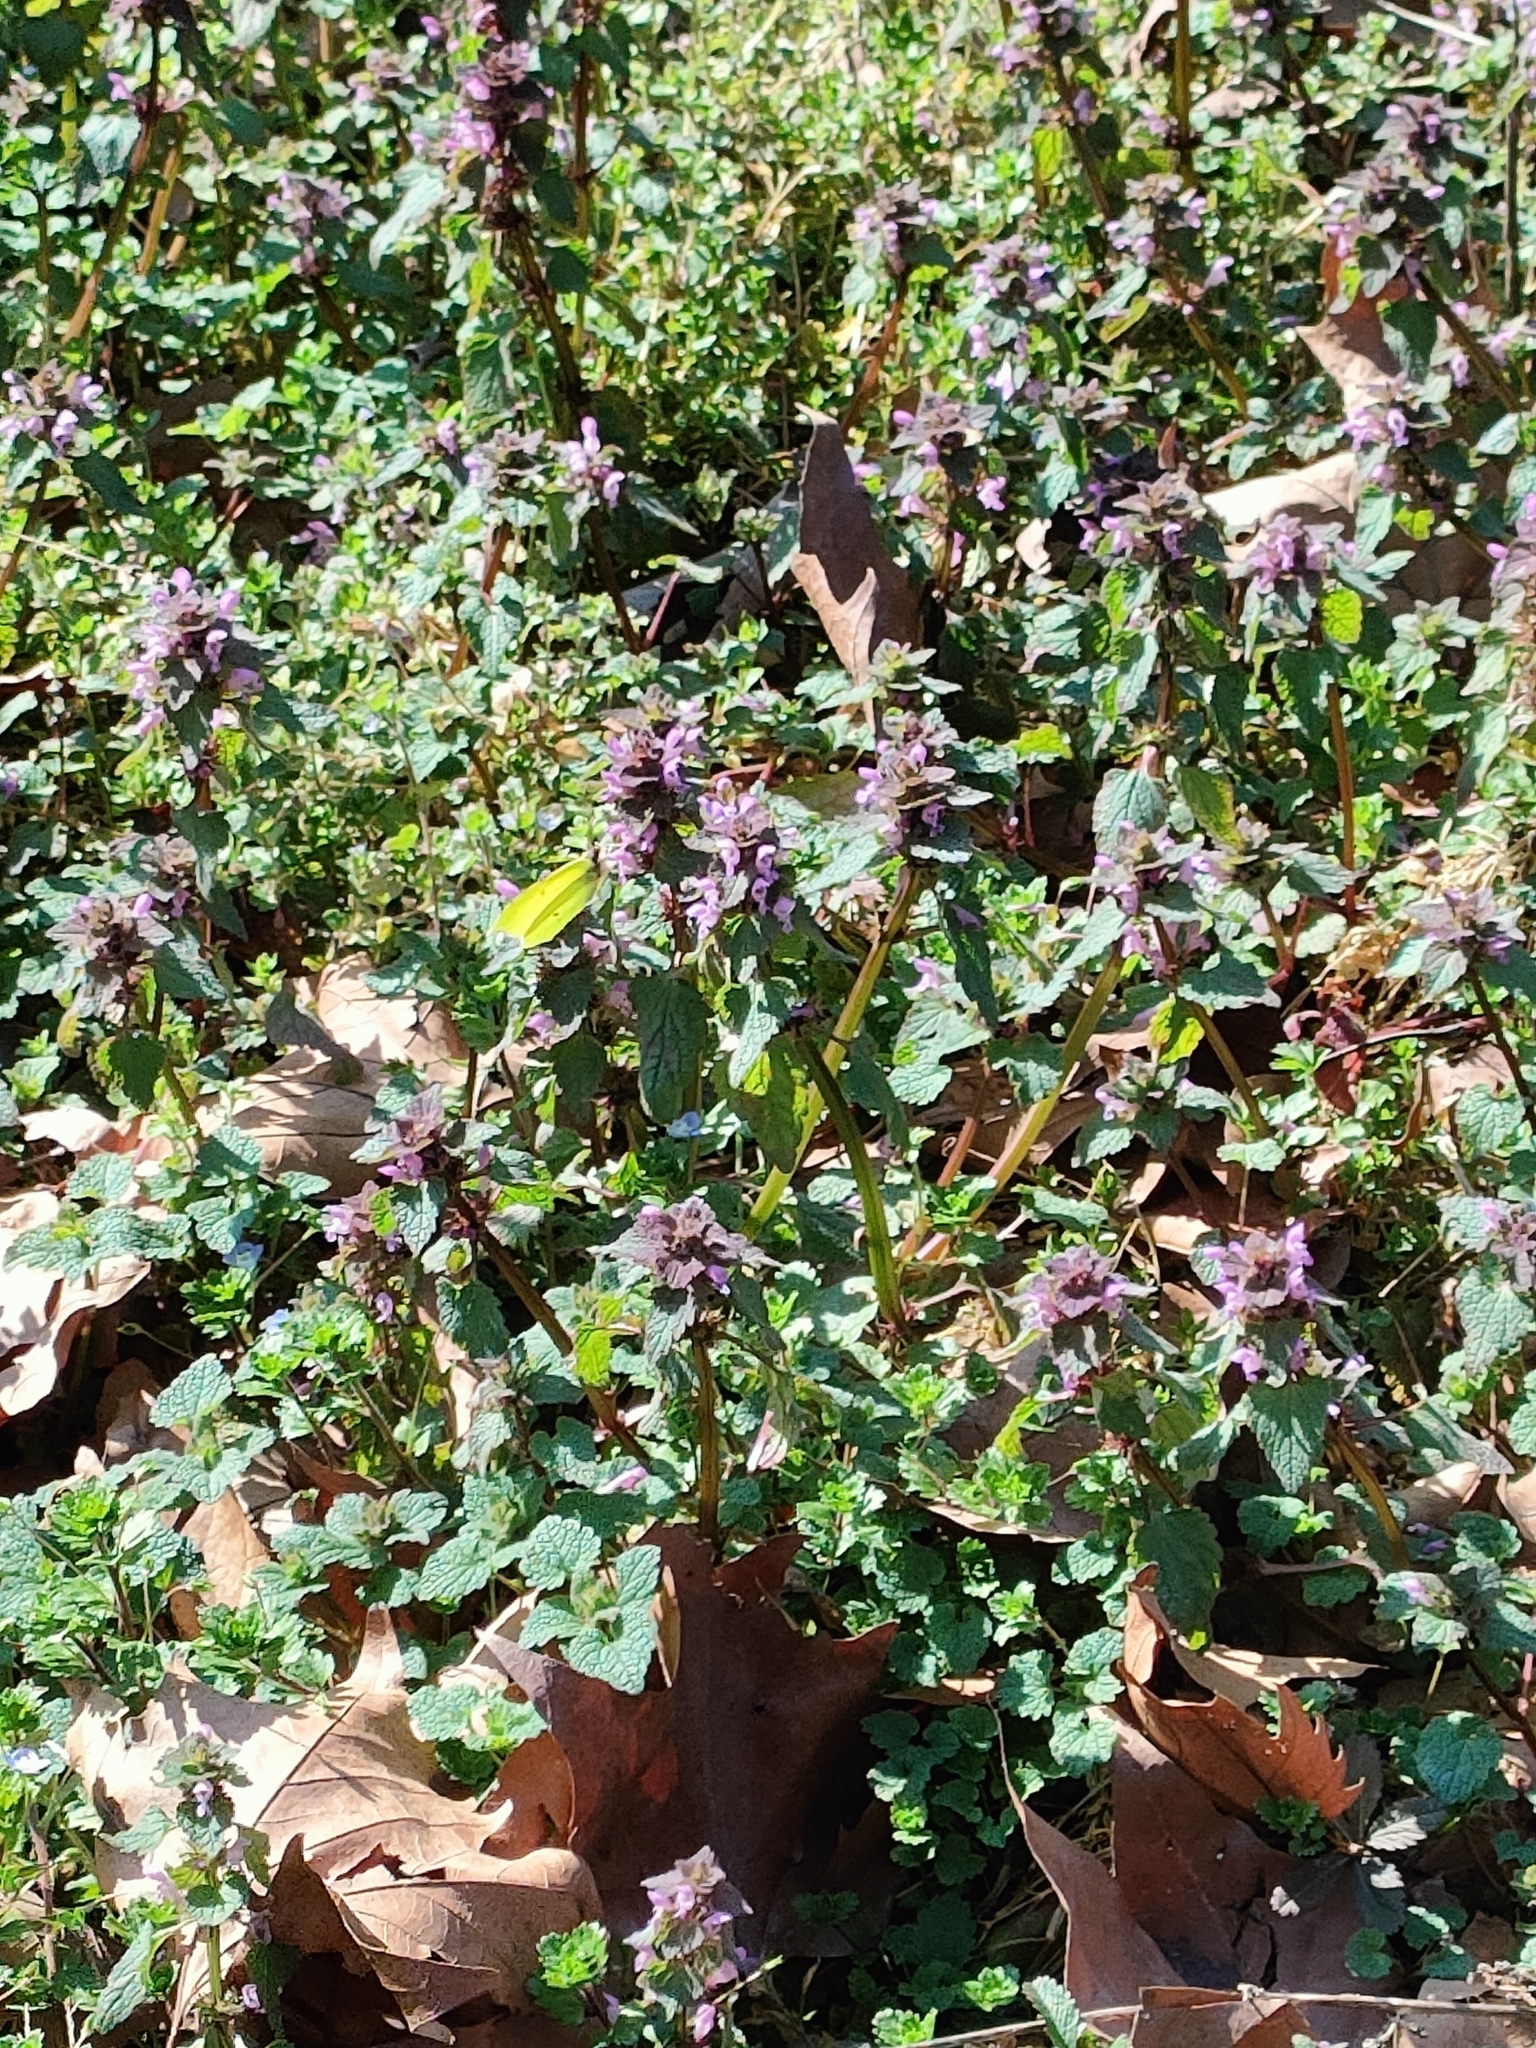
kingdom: Animalia
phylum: Arthropoda
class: Insecta
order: Lepidoptera
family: Pieridae
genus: Gonepteryx
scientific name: Gonepteryx rhamni
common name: Brimstone
